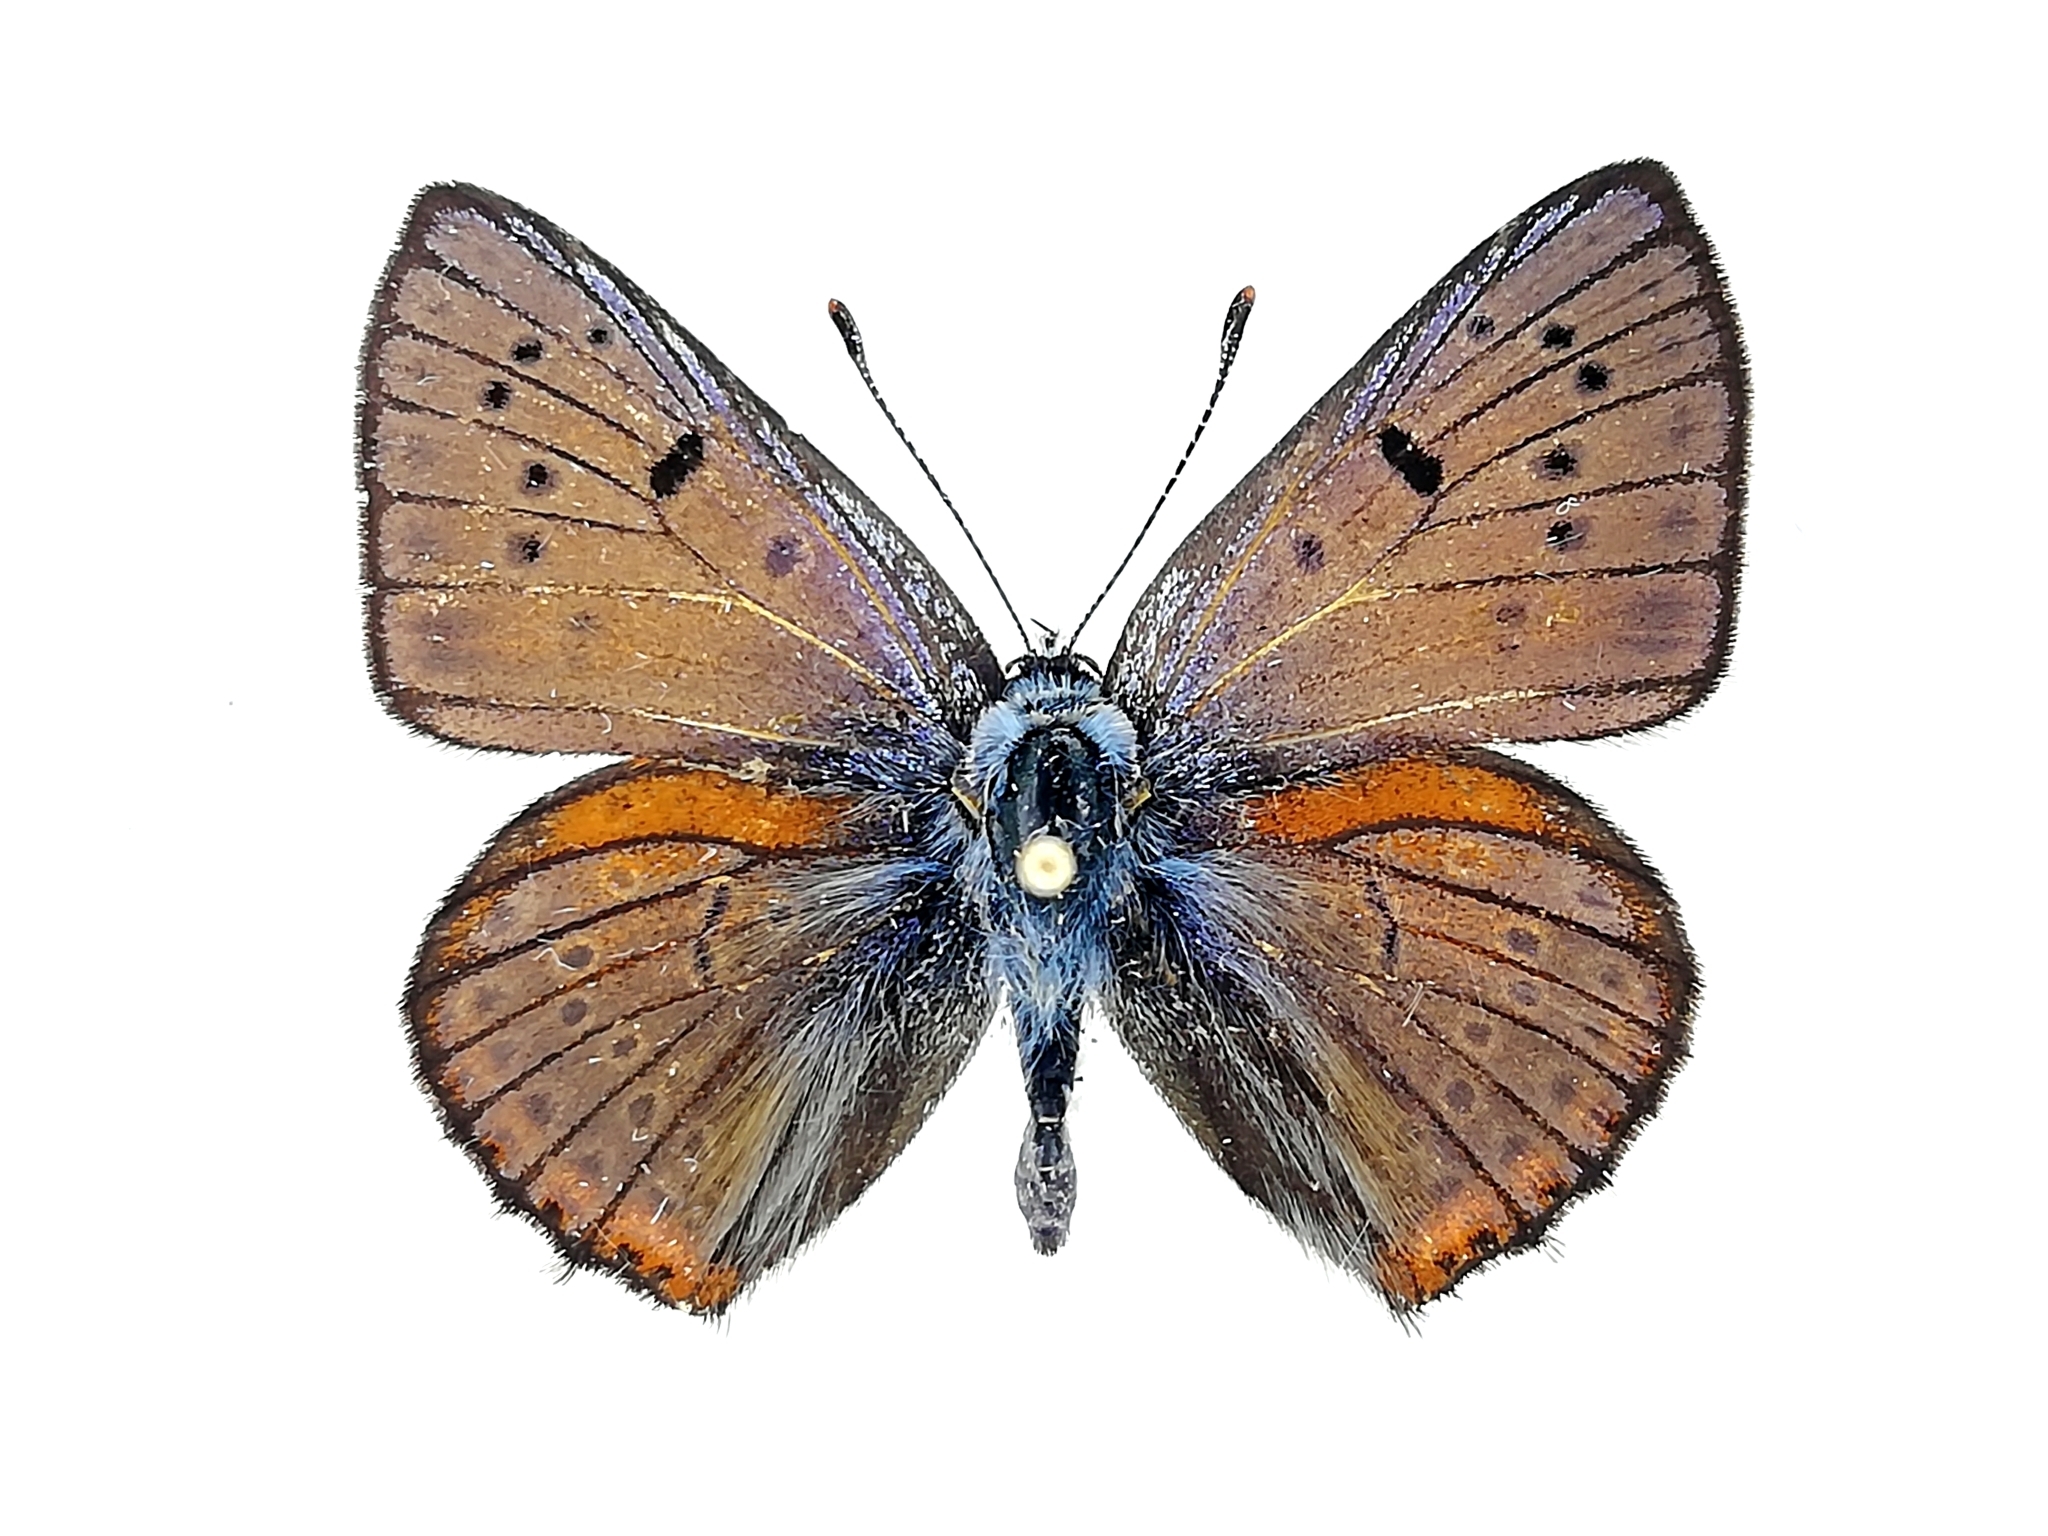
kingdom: Animalia
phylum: Arthropoda
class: Insecta
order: Lepidoptera
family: Lycaenidae
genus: Lycaena
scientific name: Lycaena alciphron
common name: Purple-shot copper
